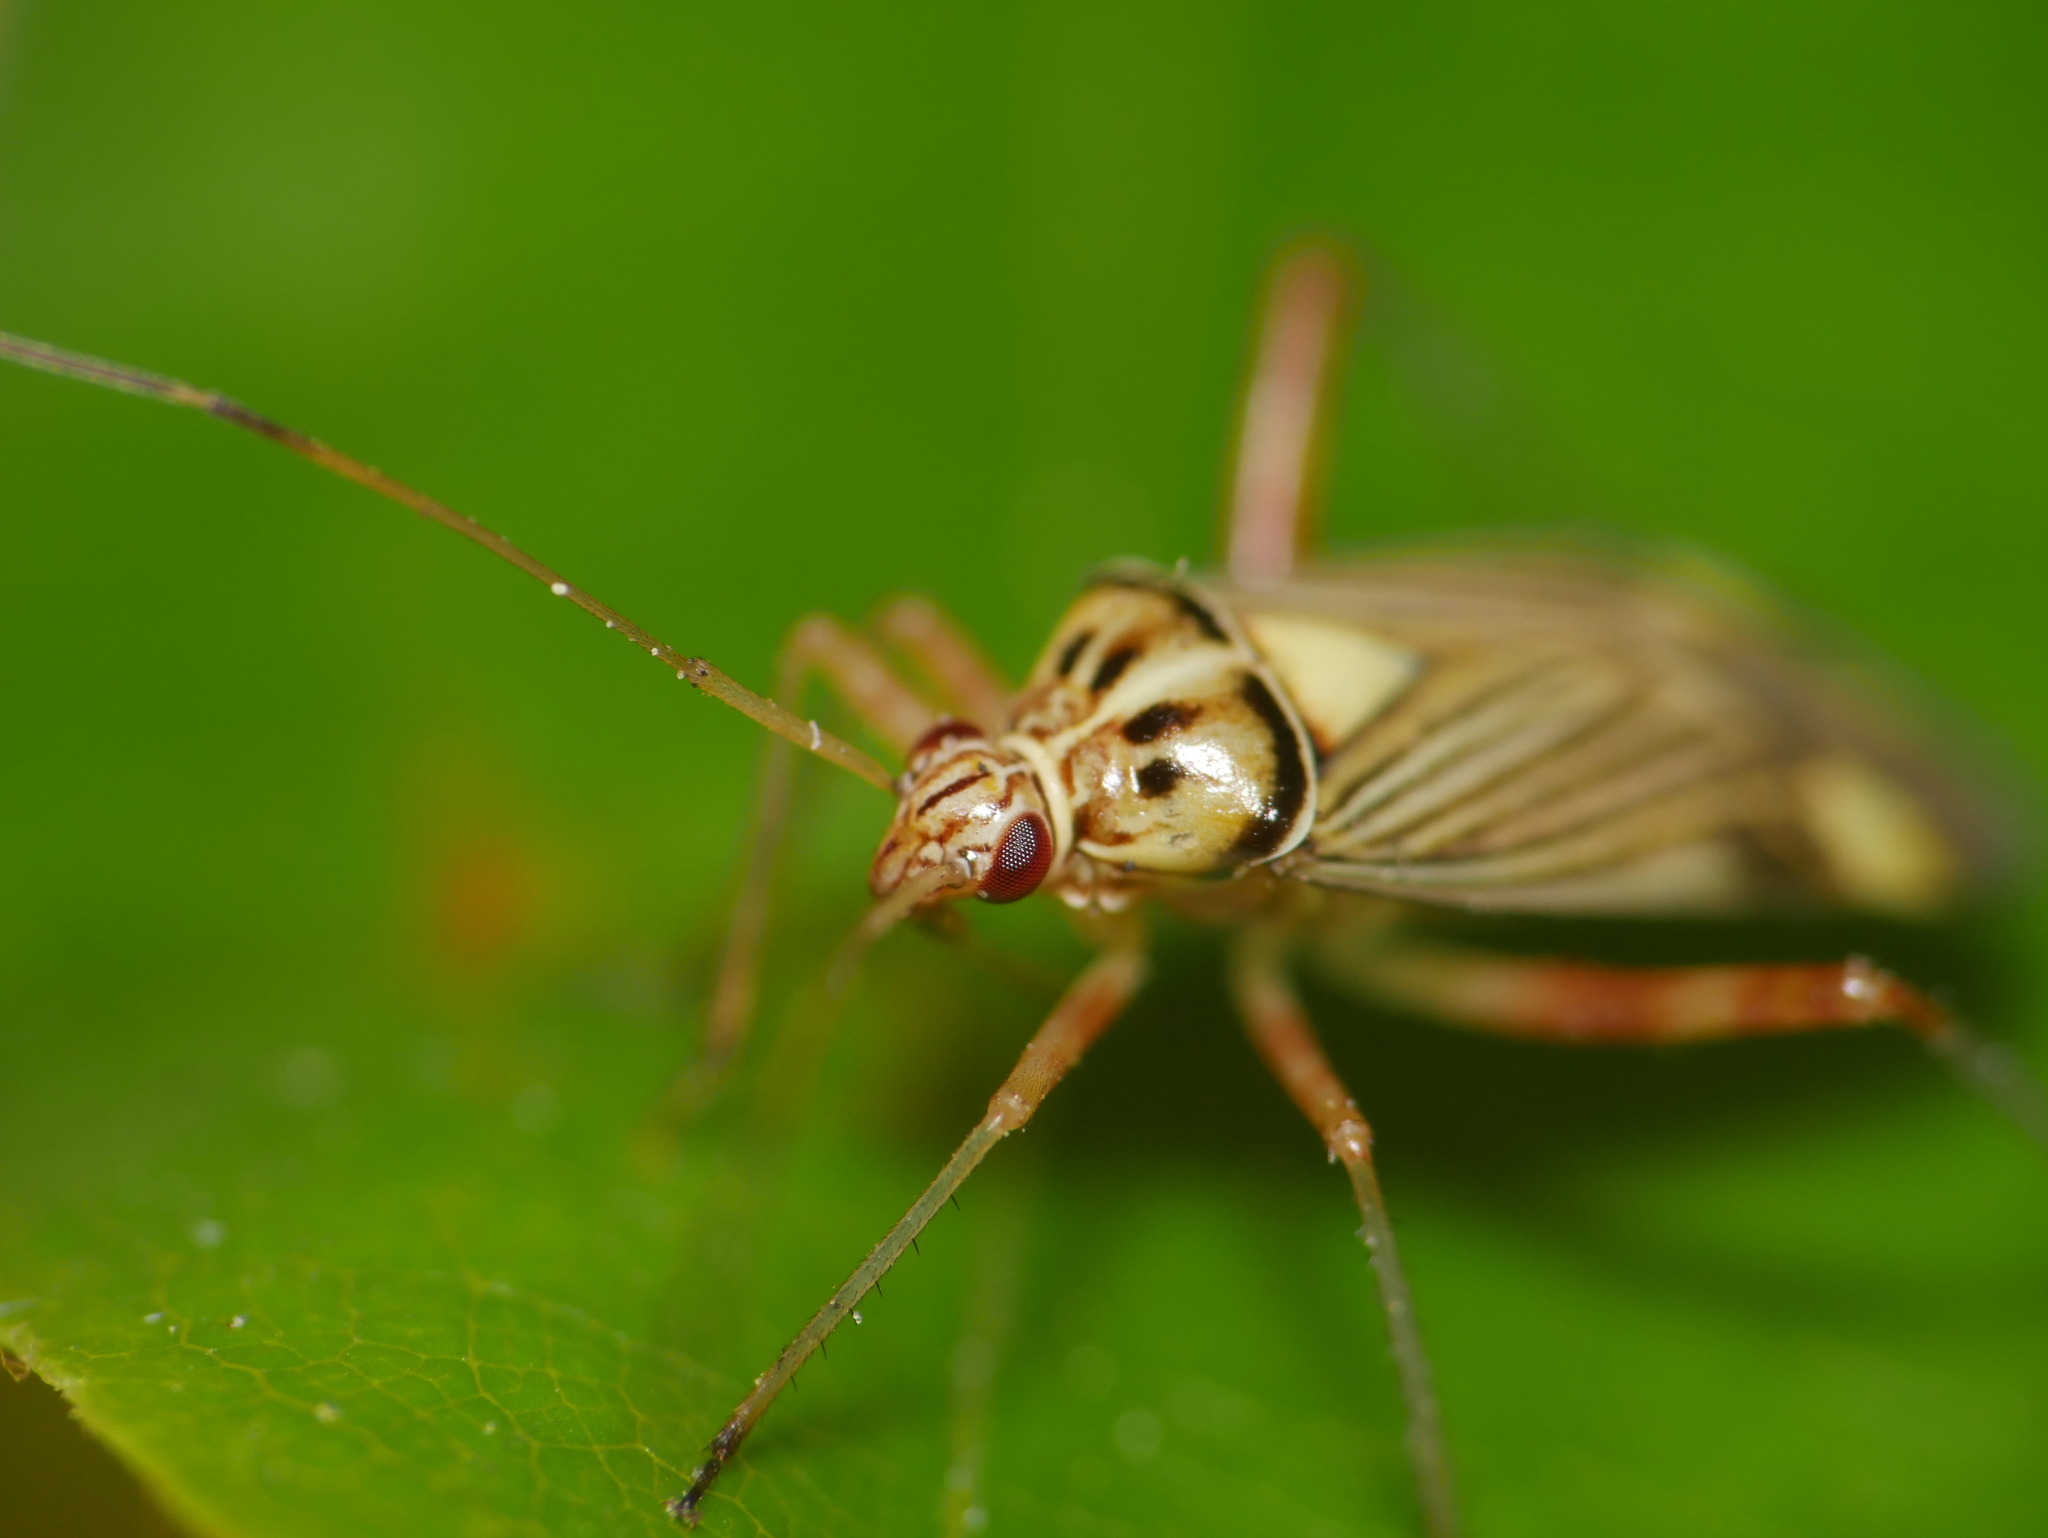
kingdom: Animalia
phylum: Arthropoda
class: Insecta
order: Hemiptera
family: Miridae
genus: Rhabdomiris
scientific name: Rhabdomiris striatellus
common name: Plant bug
